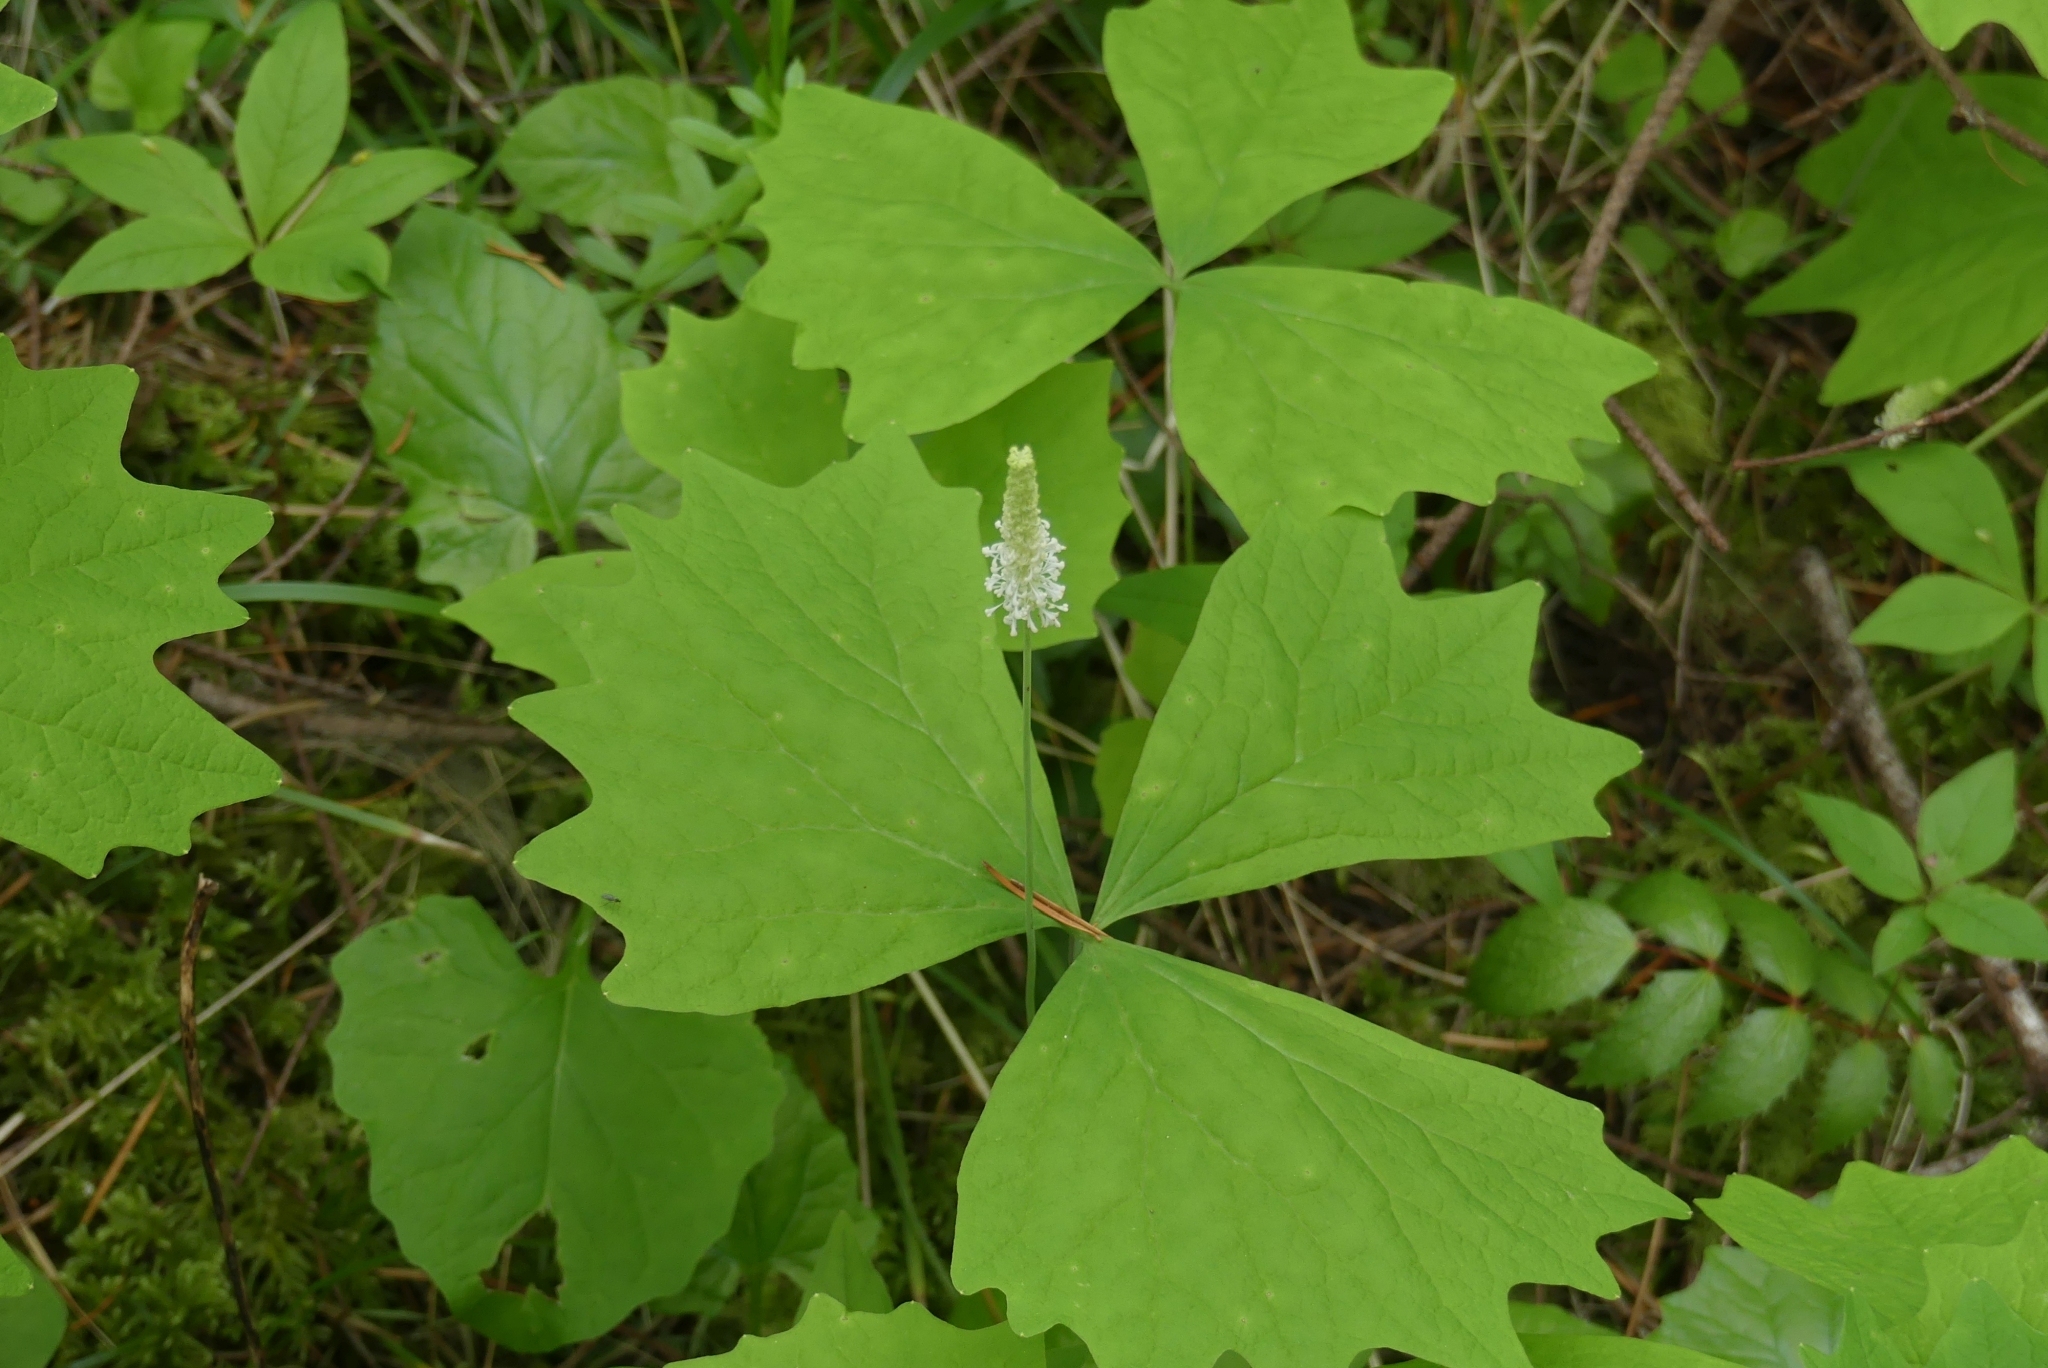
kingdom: Plantae
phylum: Tracheophyta
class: Magnoliopsida
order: Ranunculales
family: Berberidaceae
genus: Achlys
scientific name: Achlys triphylla
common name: Vanilla-leaf
